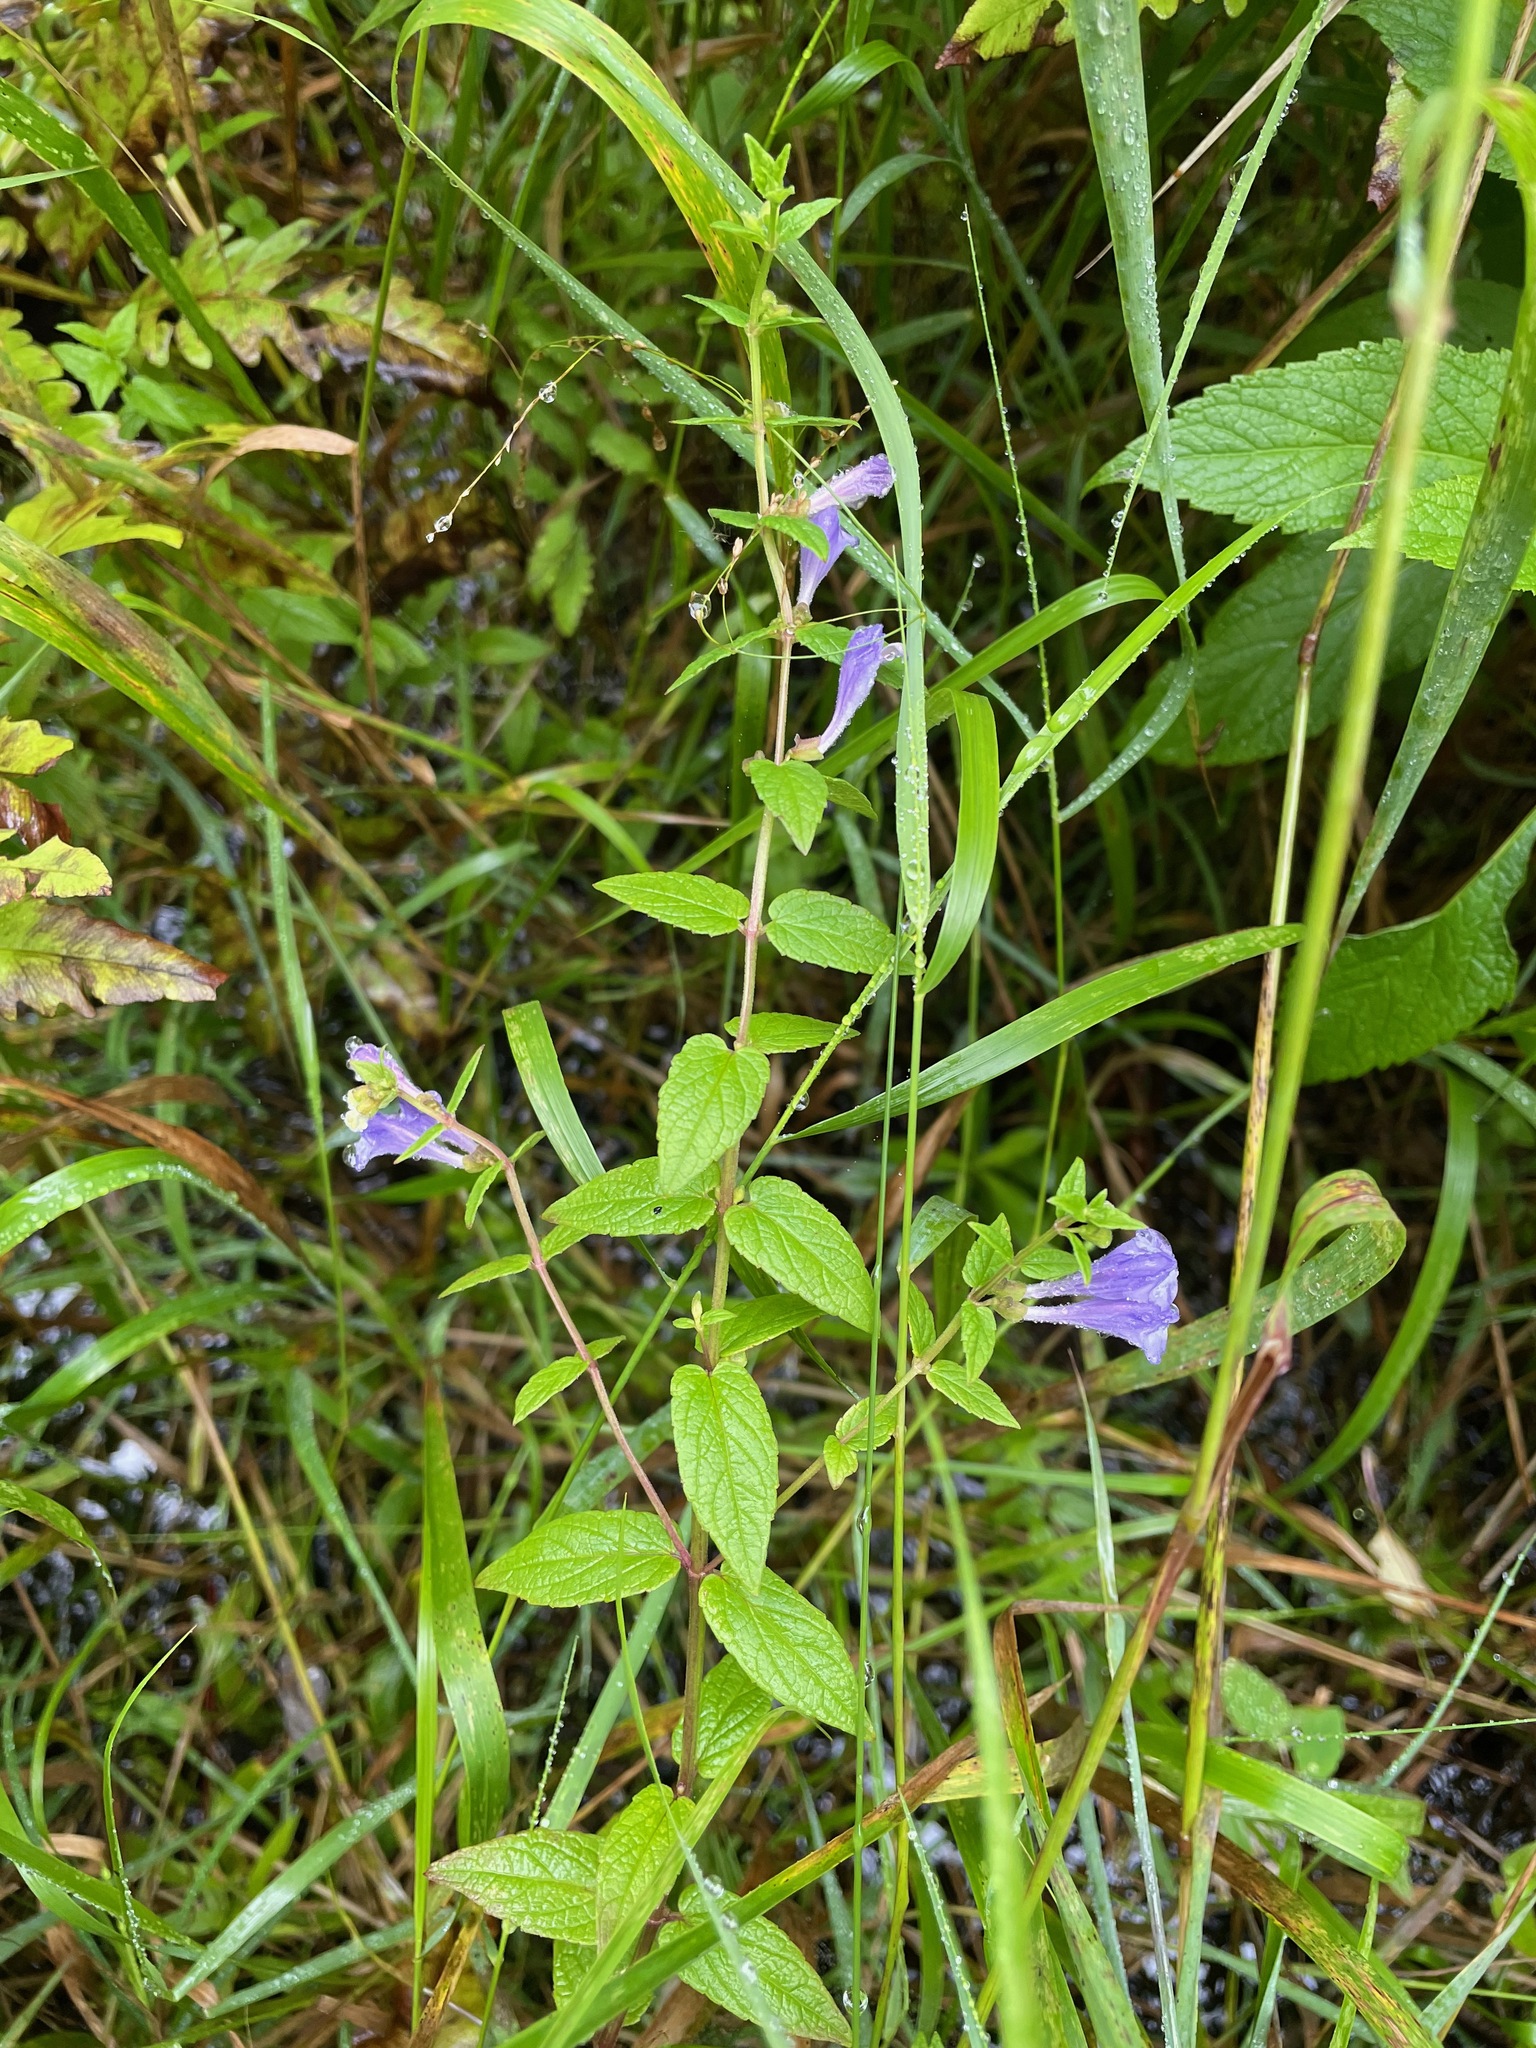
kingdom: Plantae
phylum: Tracheophyta
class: Magnoliopsida
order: Lamiales
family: Lamiaceae
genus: Scutellaria
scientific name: Scutellaria galericulata
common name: Skullcap
